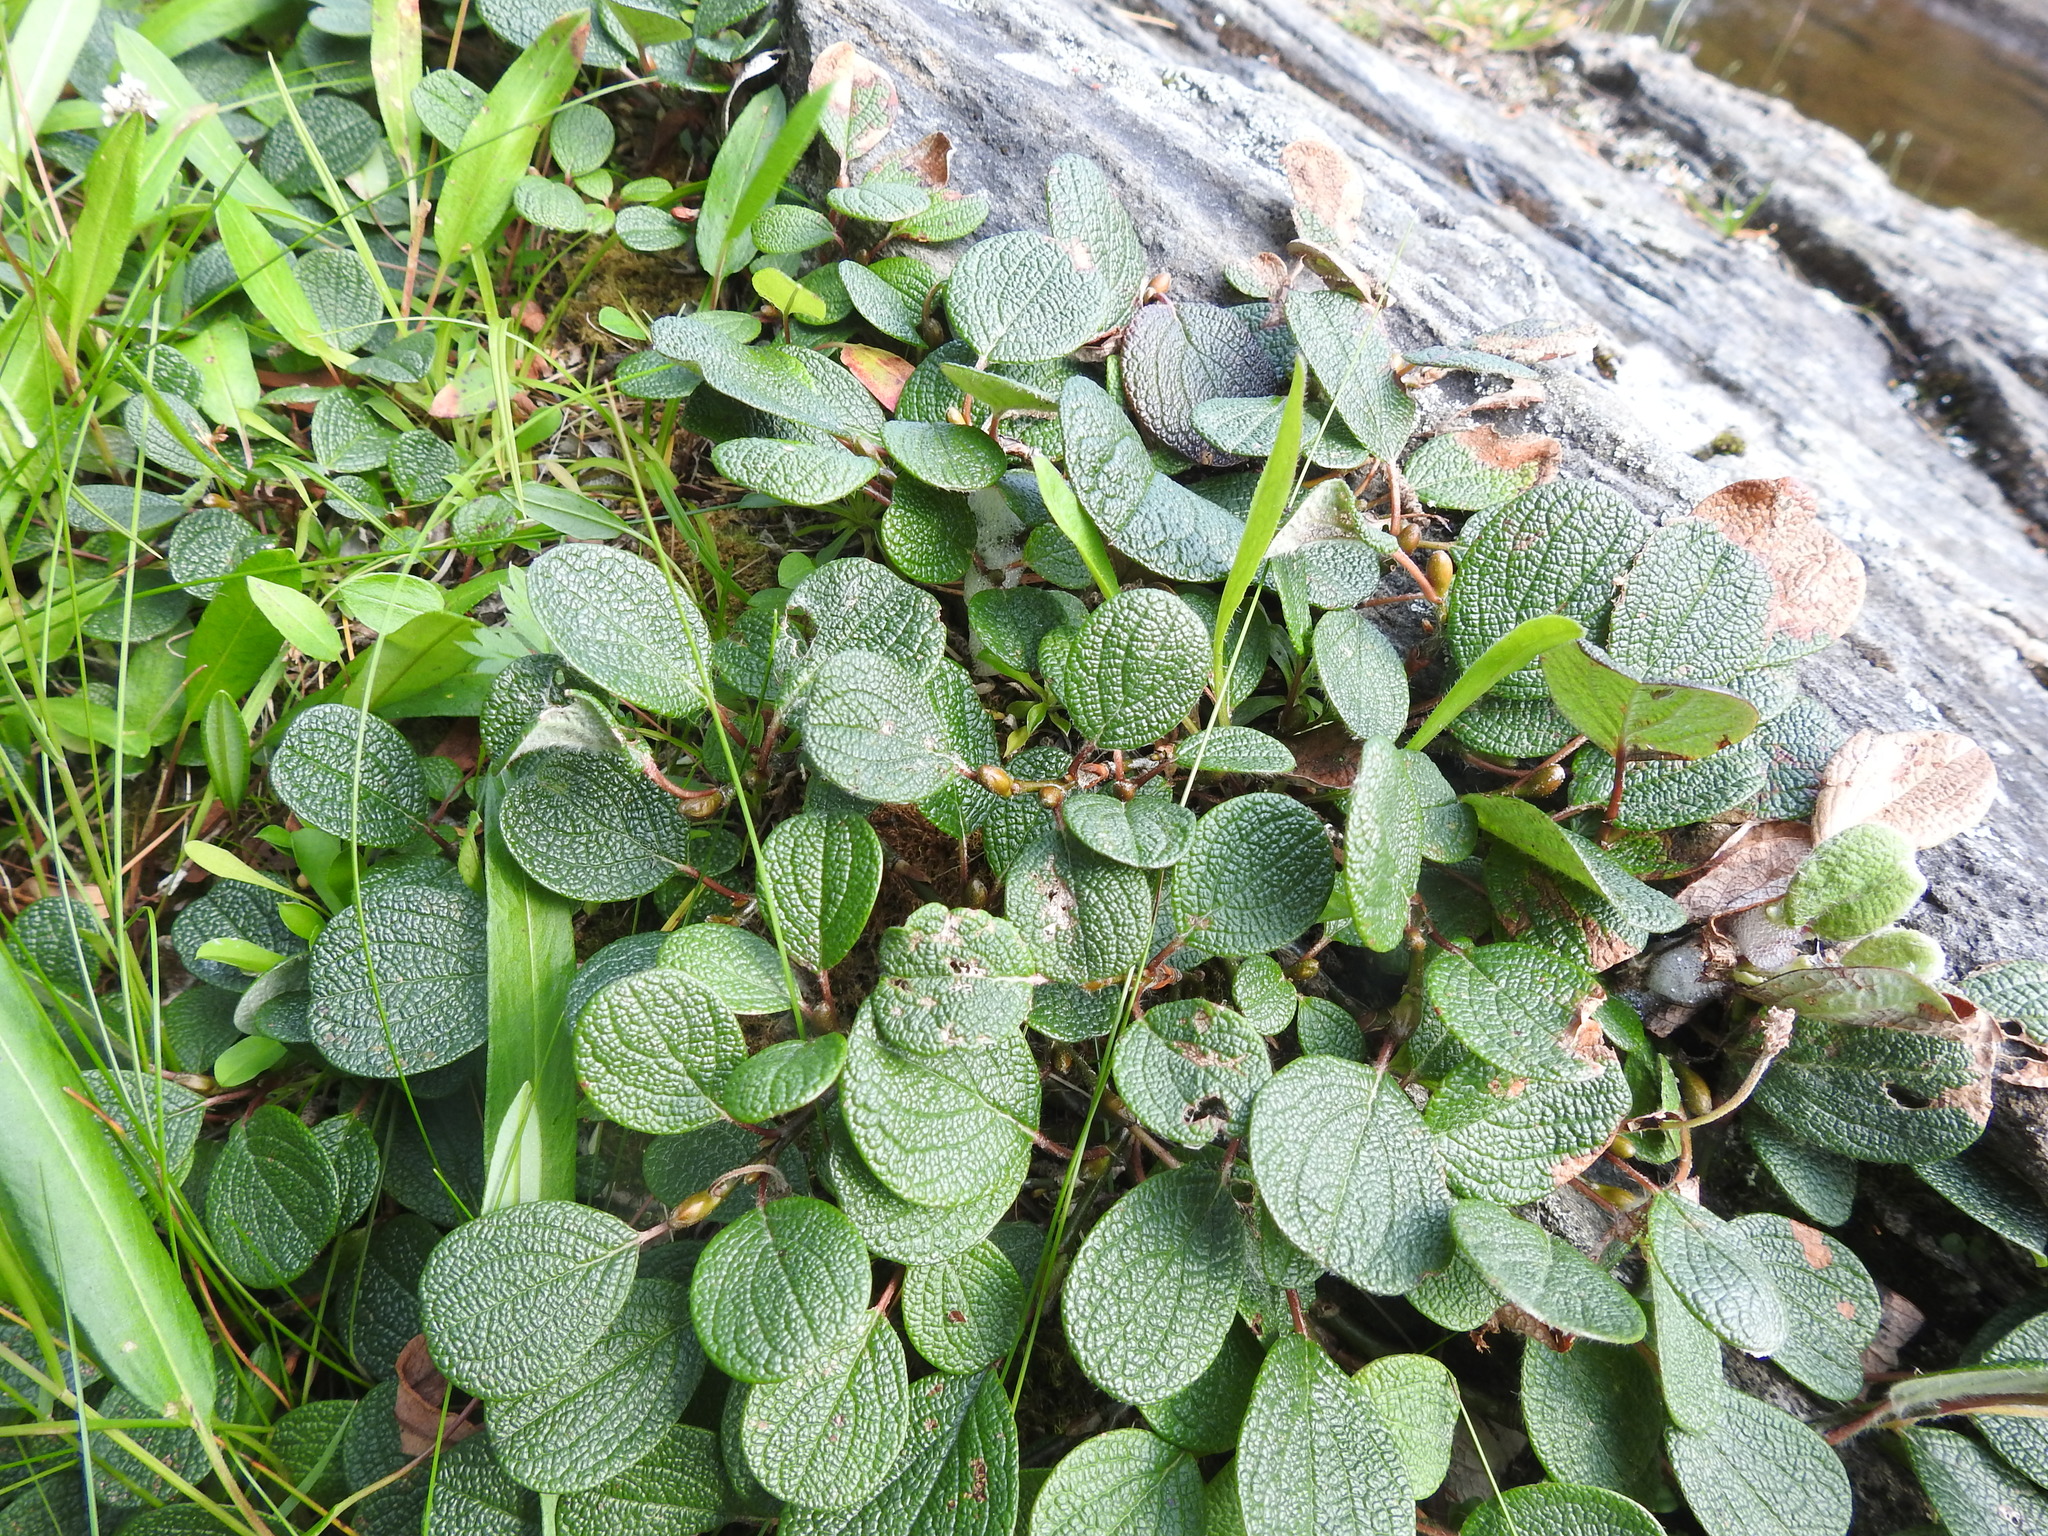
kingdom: Plantae
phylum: Tracheophyta
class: Magnoliopsida
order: Malpighiales
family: Salicaceae
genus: Salix
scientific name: Salix reticulata
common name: Net-leaved willow
